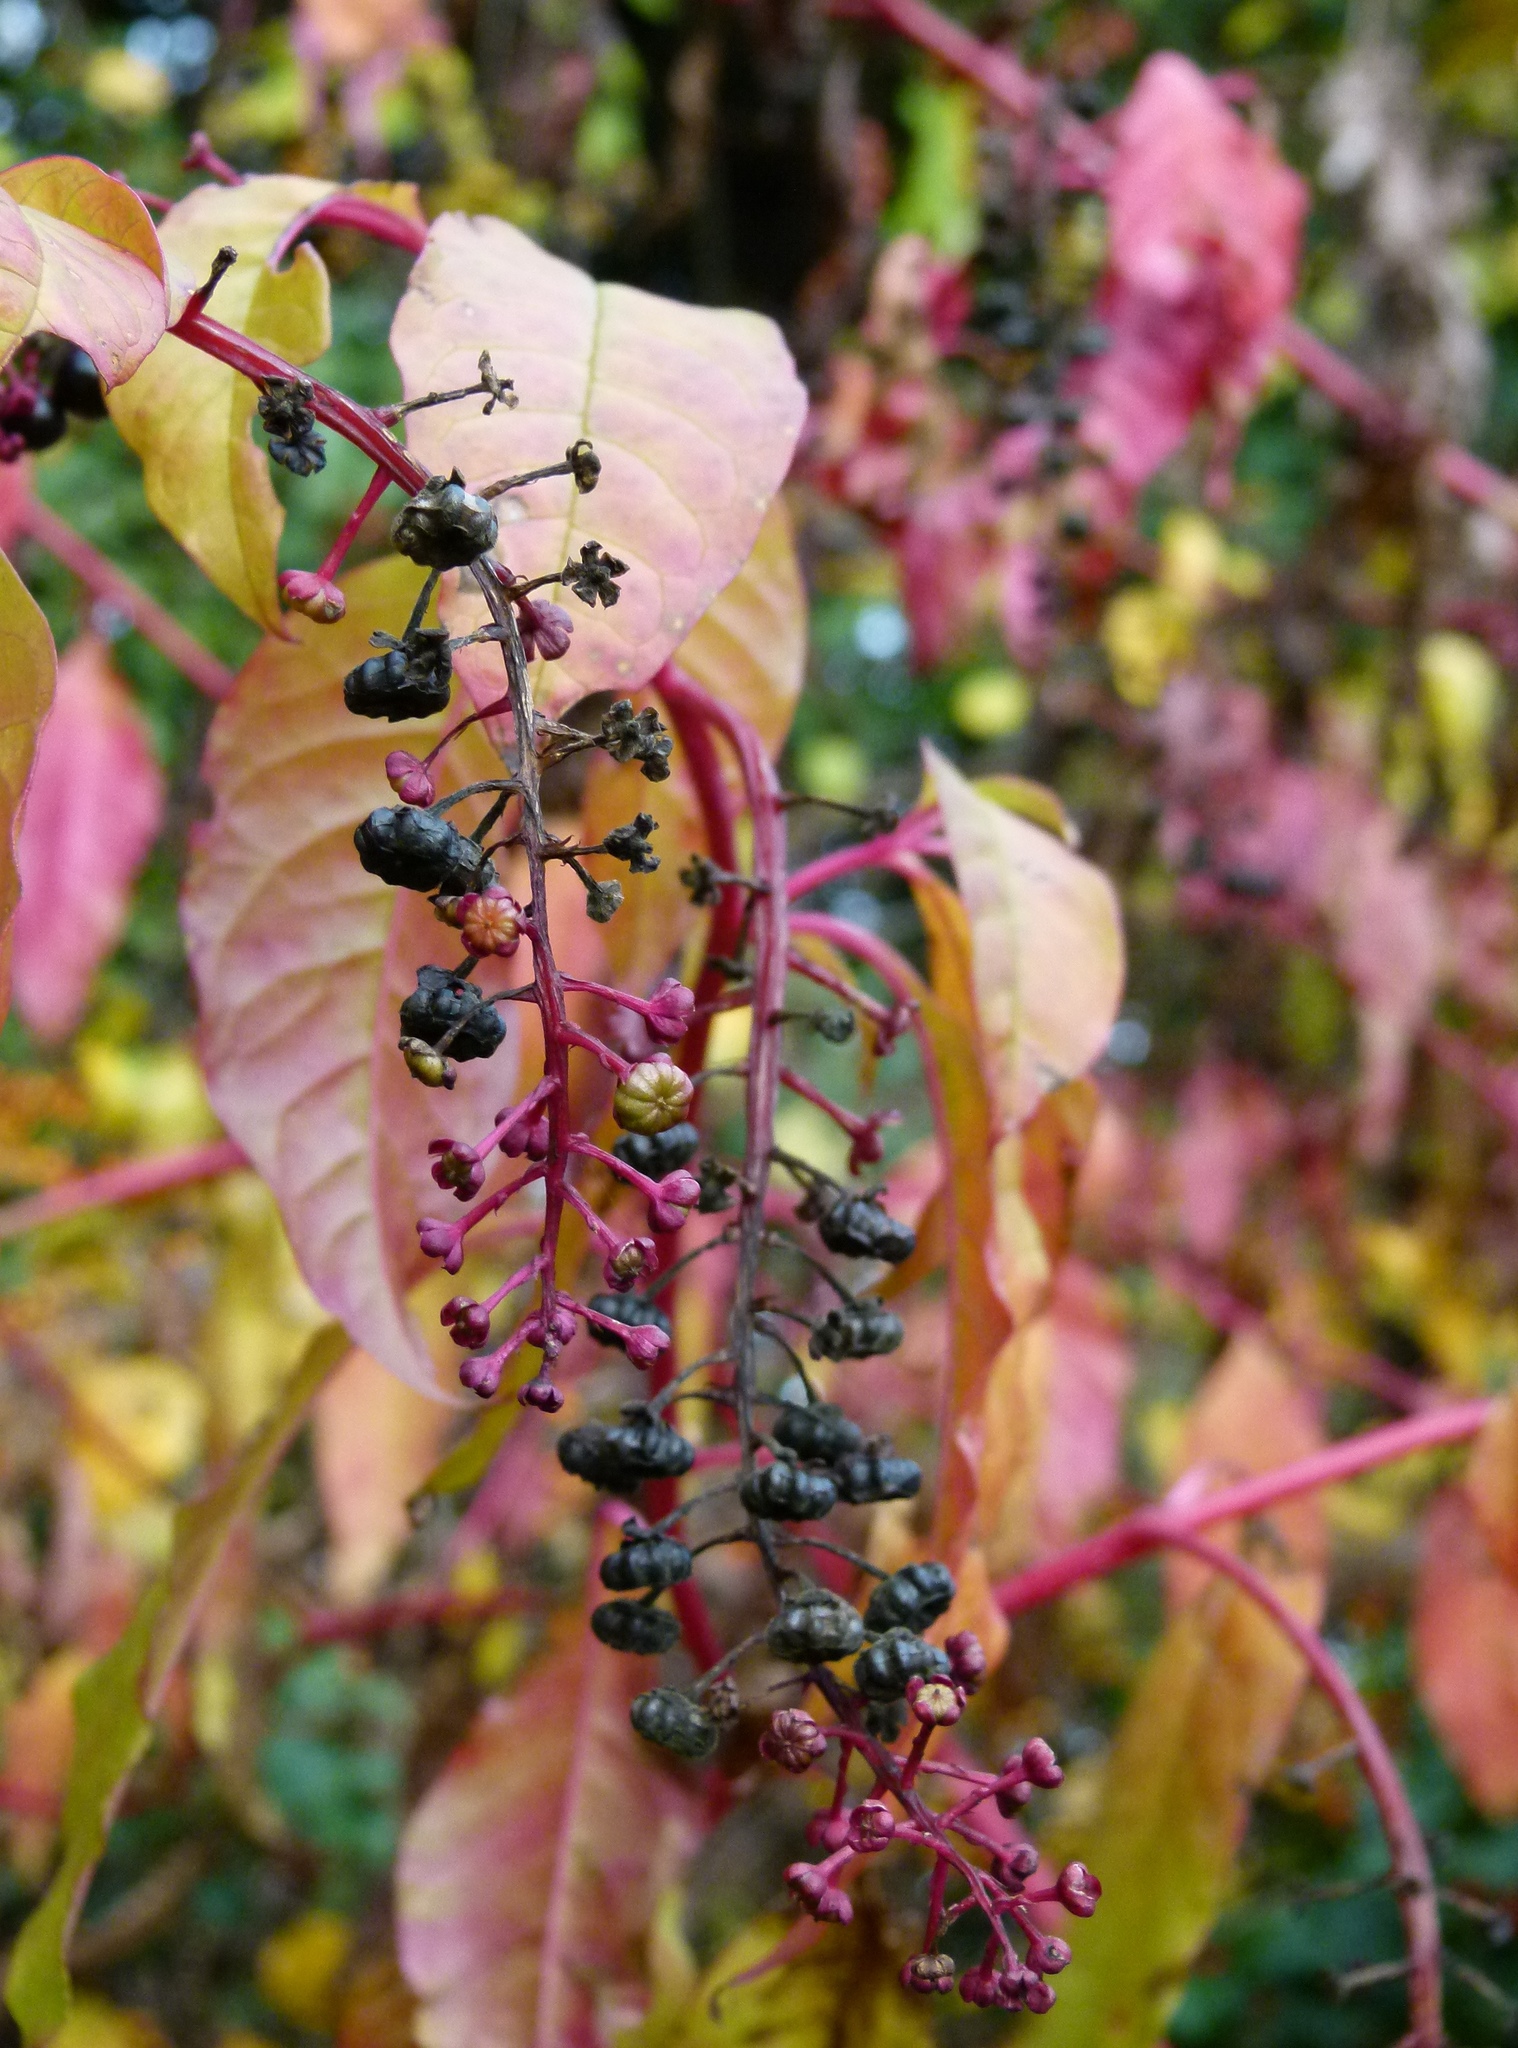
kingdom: Plantae
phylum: Tracheophyta
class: Magnoliopsida
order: Caryophyllales
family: Phytolaccaceae
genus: Phytolacca
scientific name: Phytolacca americana
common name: American pokeweed
